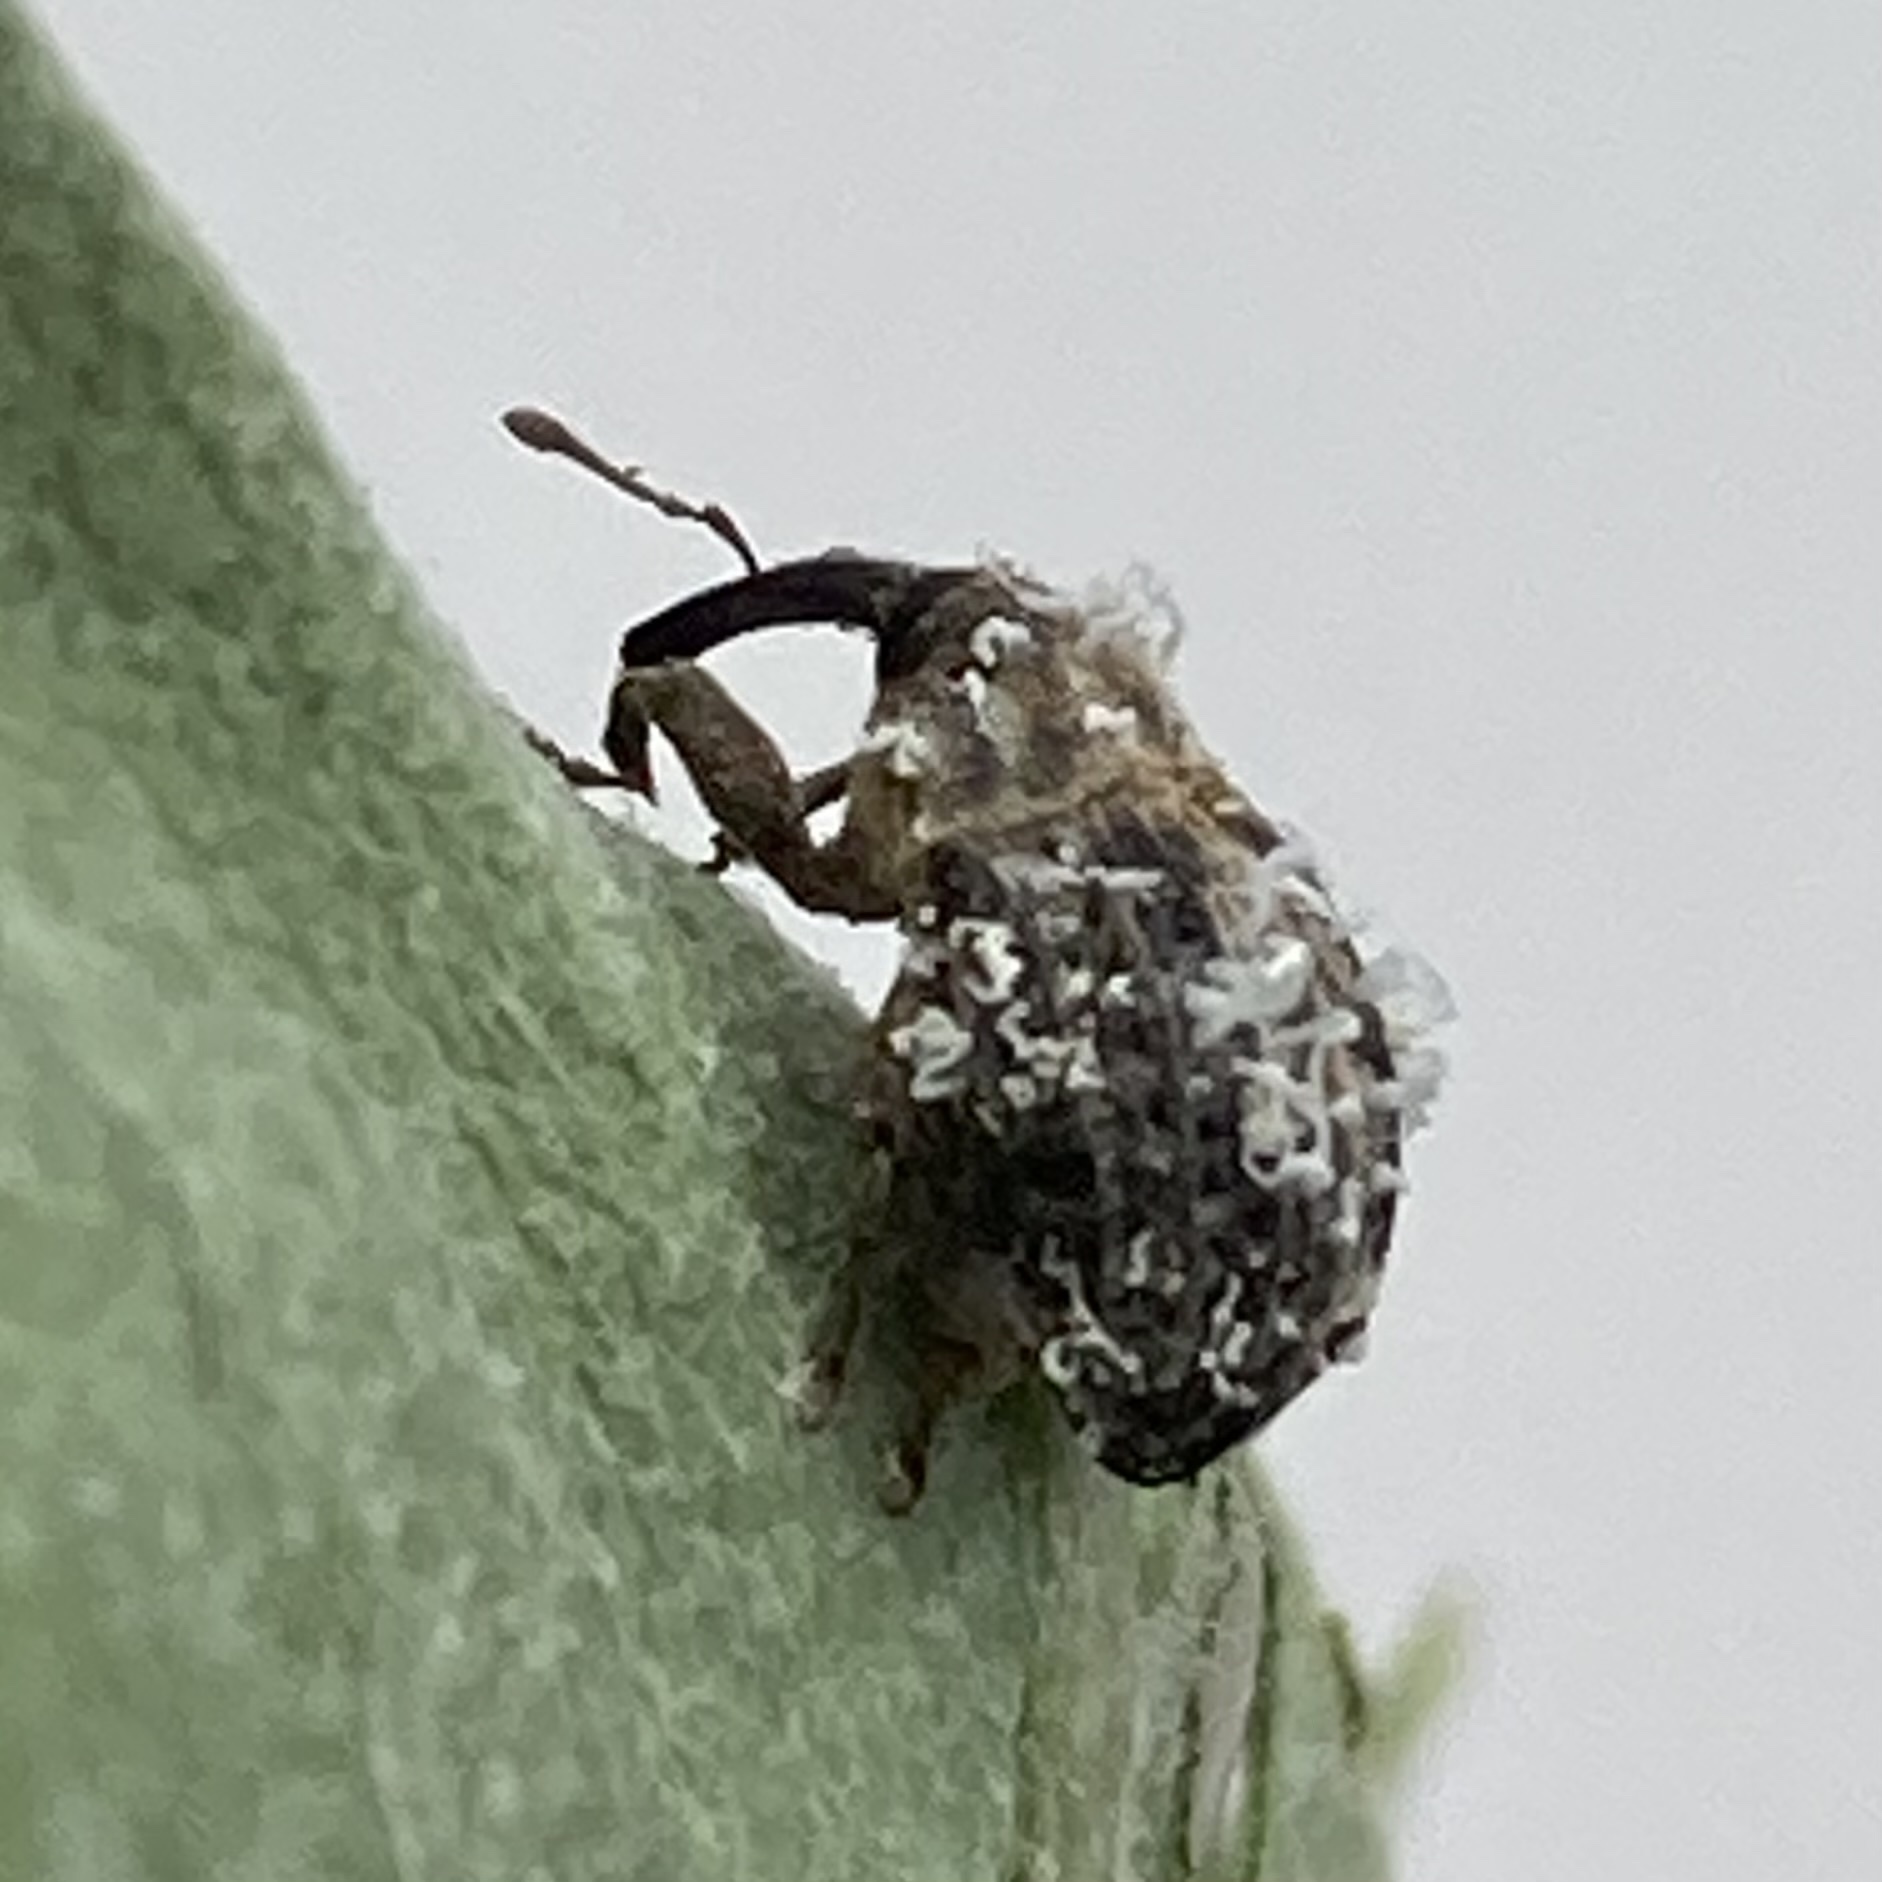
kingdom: Animalia
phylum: Arthropoda
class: Insecta
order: Coleoptera
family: Curculionidae
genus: Rhyssomatus
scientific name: Rhyssomatus lineaticollis
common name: Milkweed stem weevil
